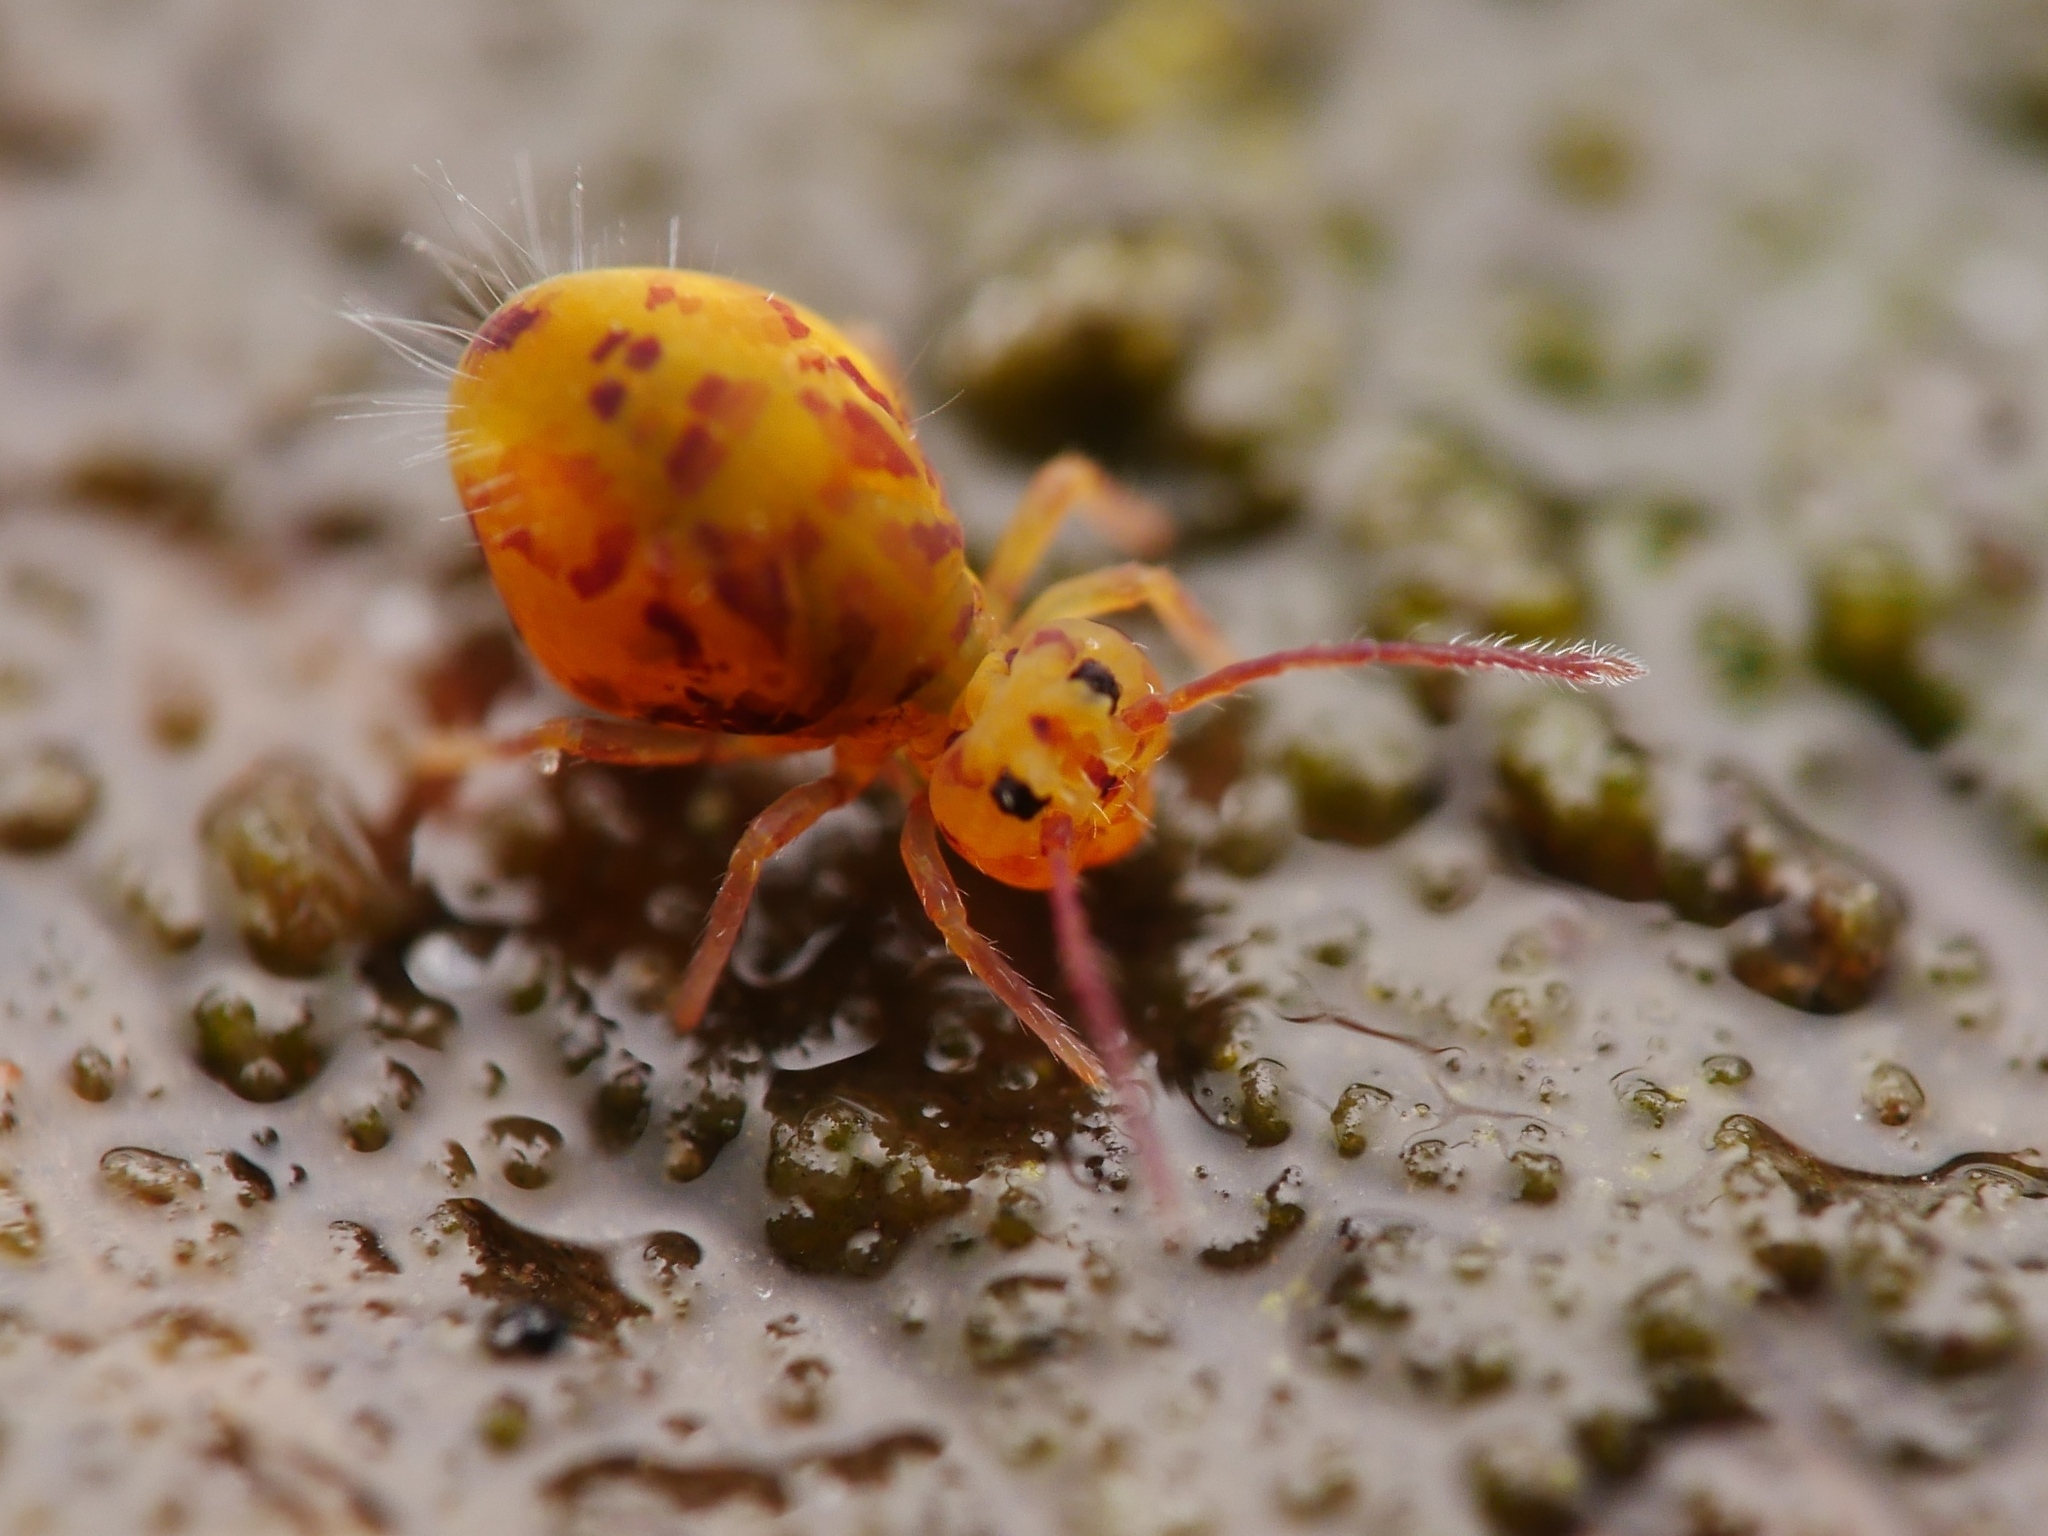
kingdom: Animalia
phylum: Arthropoda
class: Collembola
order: Symphypleona
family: Dicyrtomidae
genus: Dicyrtomina
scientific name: Dicyrtomina ornata
